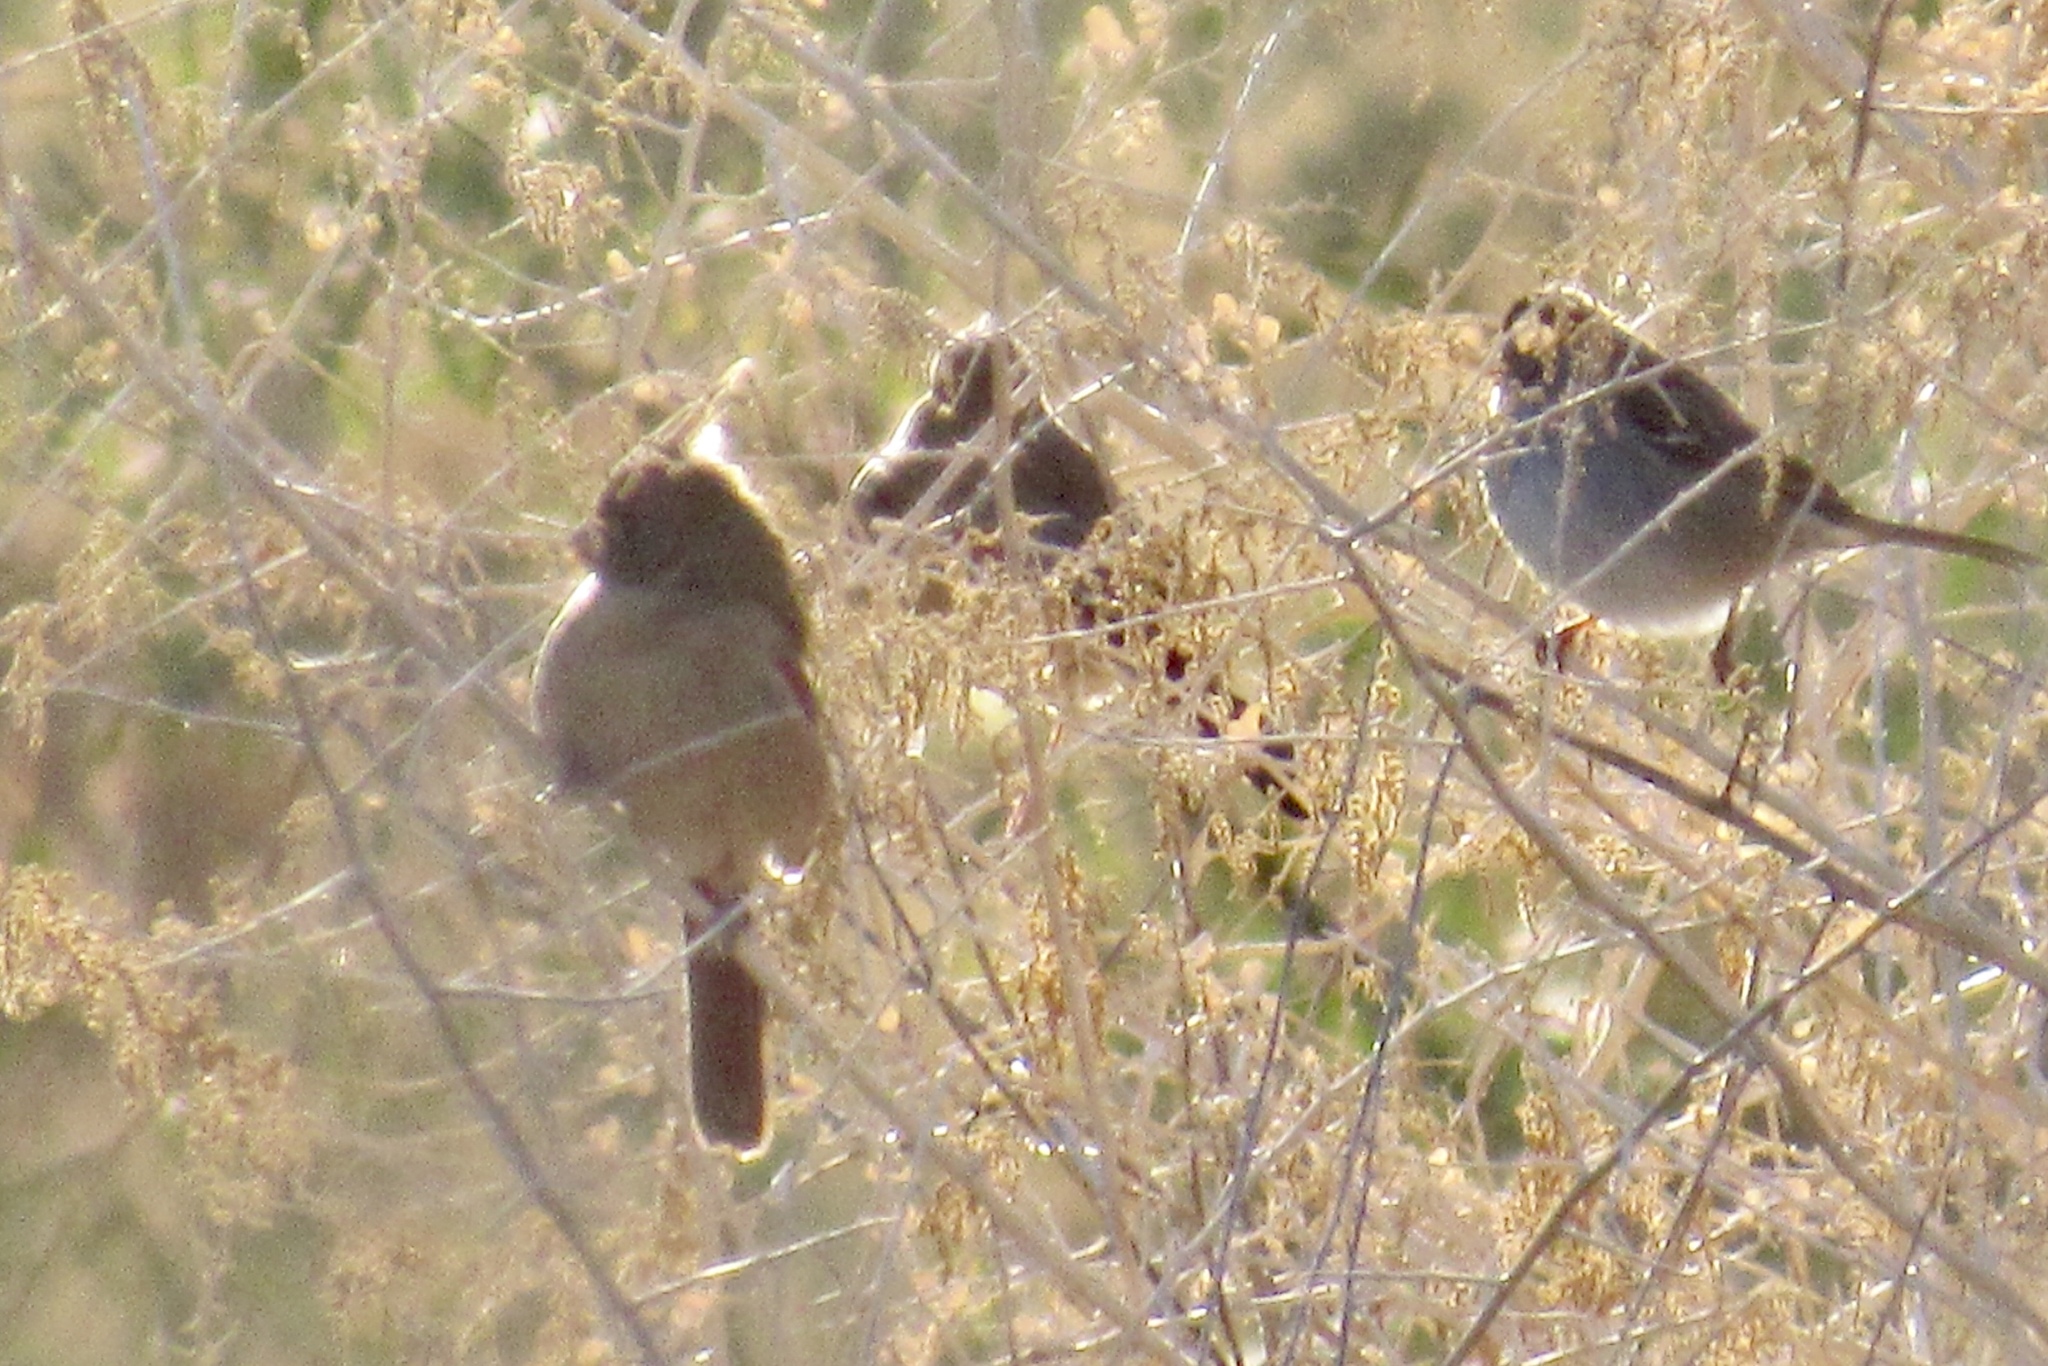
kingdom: Animalia
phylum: Chordata
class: Aves
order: Passeriformes
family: Passerellidae
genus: Zonotrichia
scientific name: Zonotrichia leucophrys
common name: White-crowned sparrow
